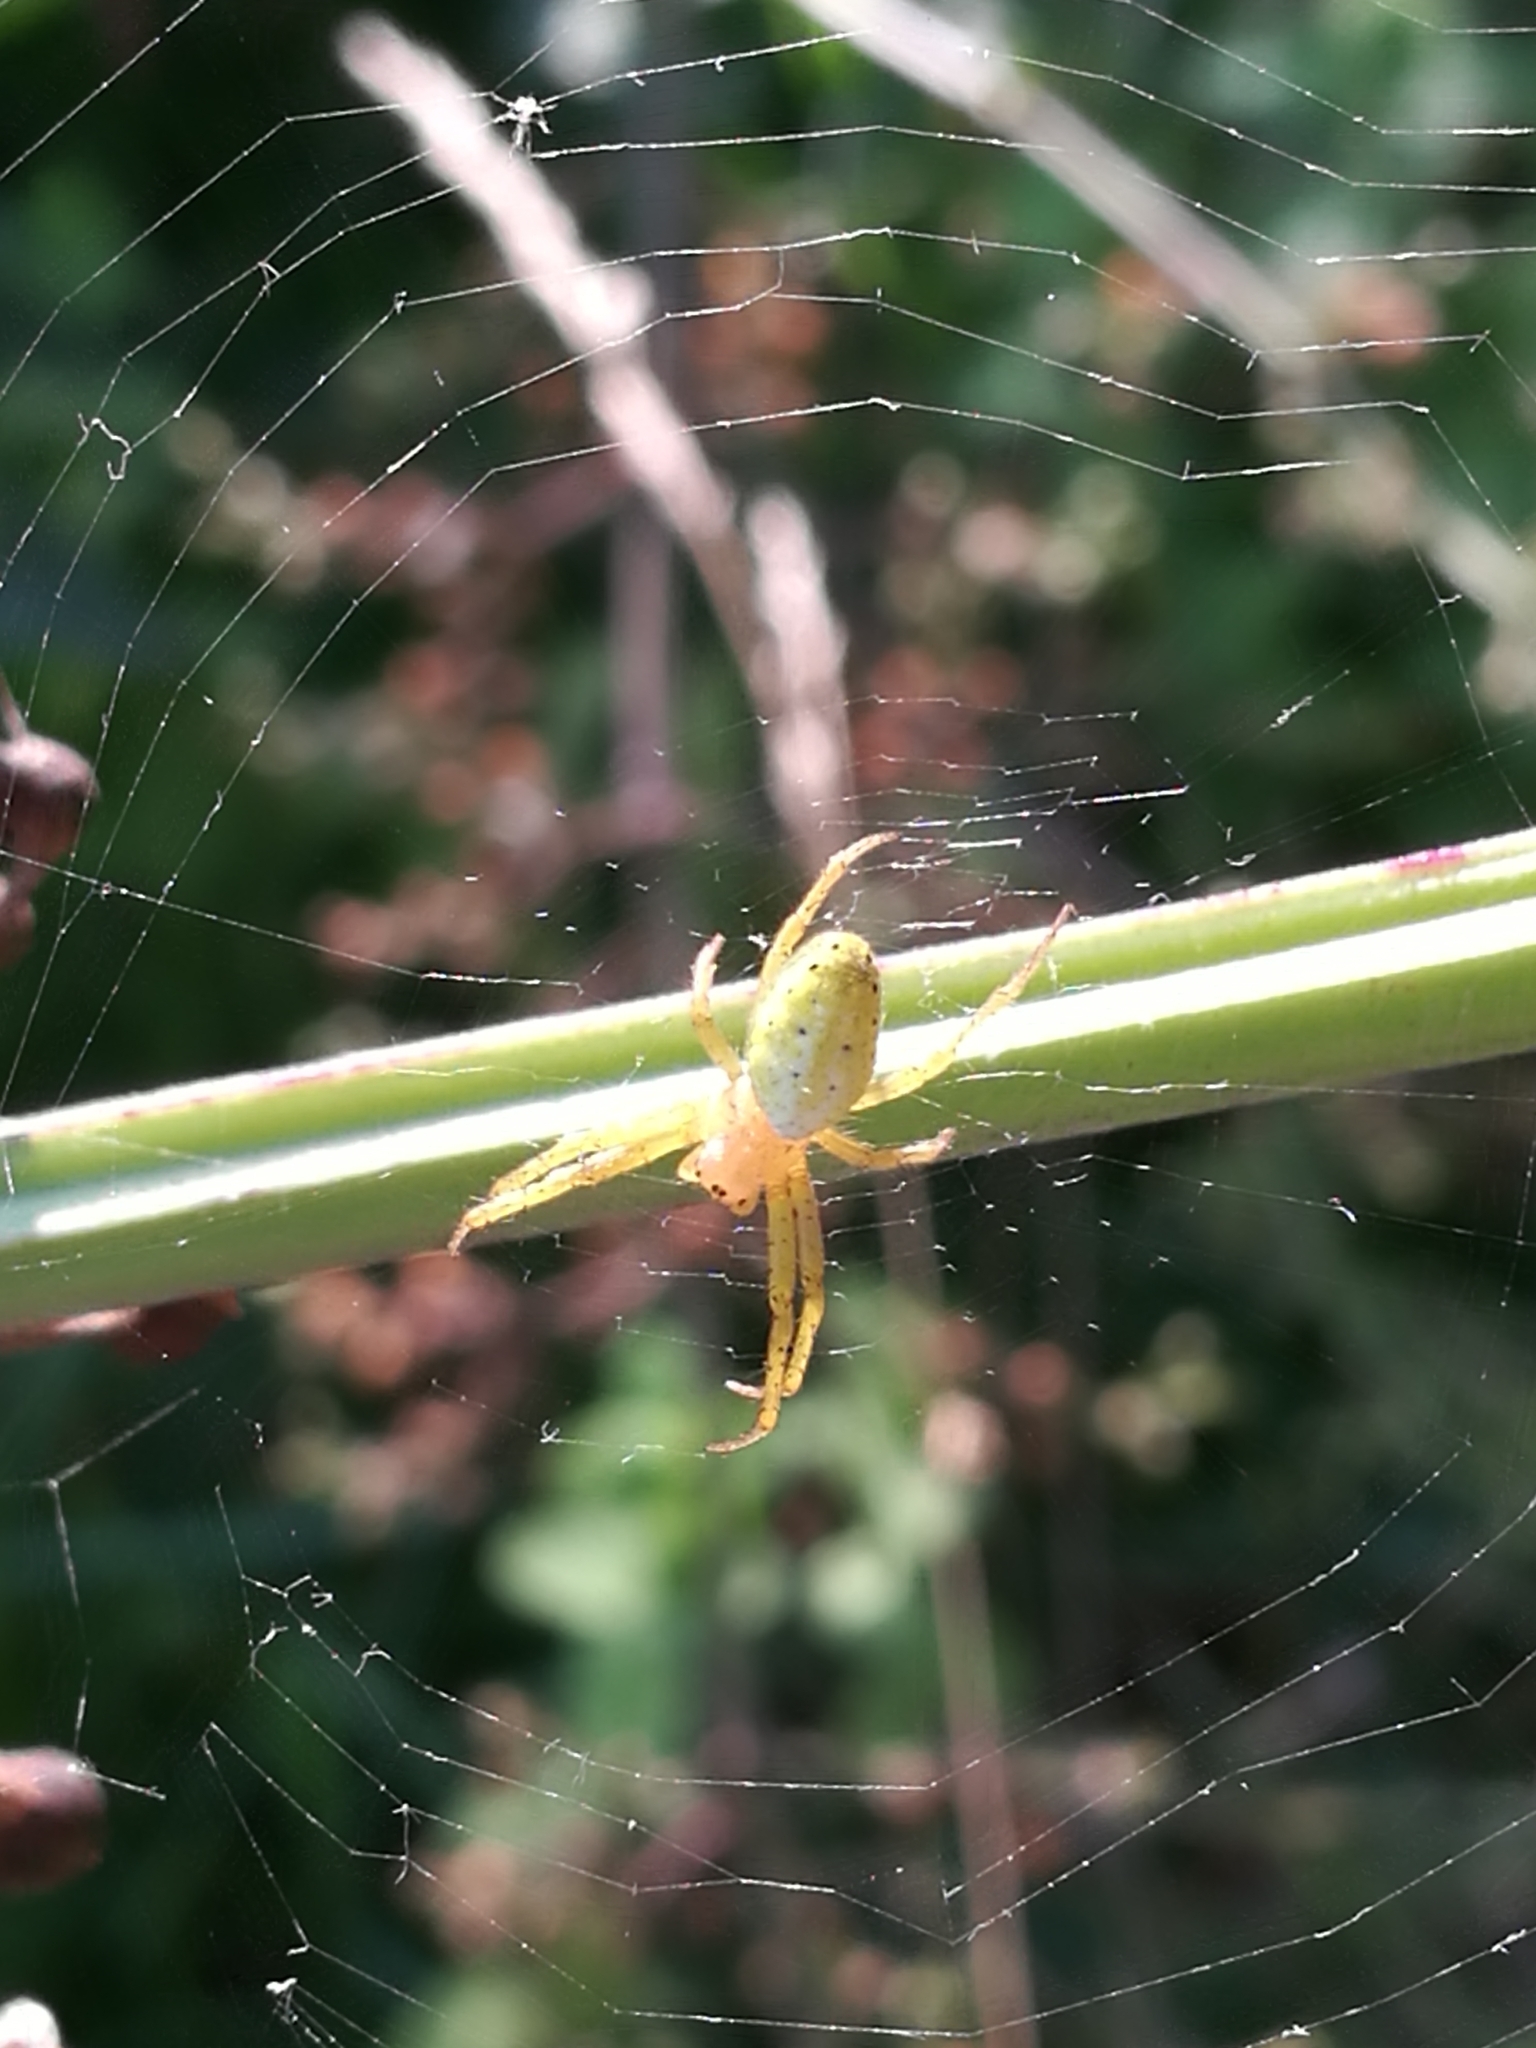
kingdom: Animalia
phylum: Arthropoda
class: Arachnida
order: Araneae
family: Araneidae
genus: Araniella
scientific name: Araniella
